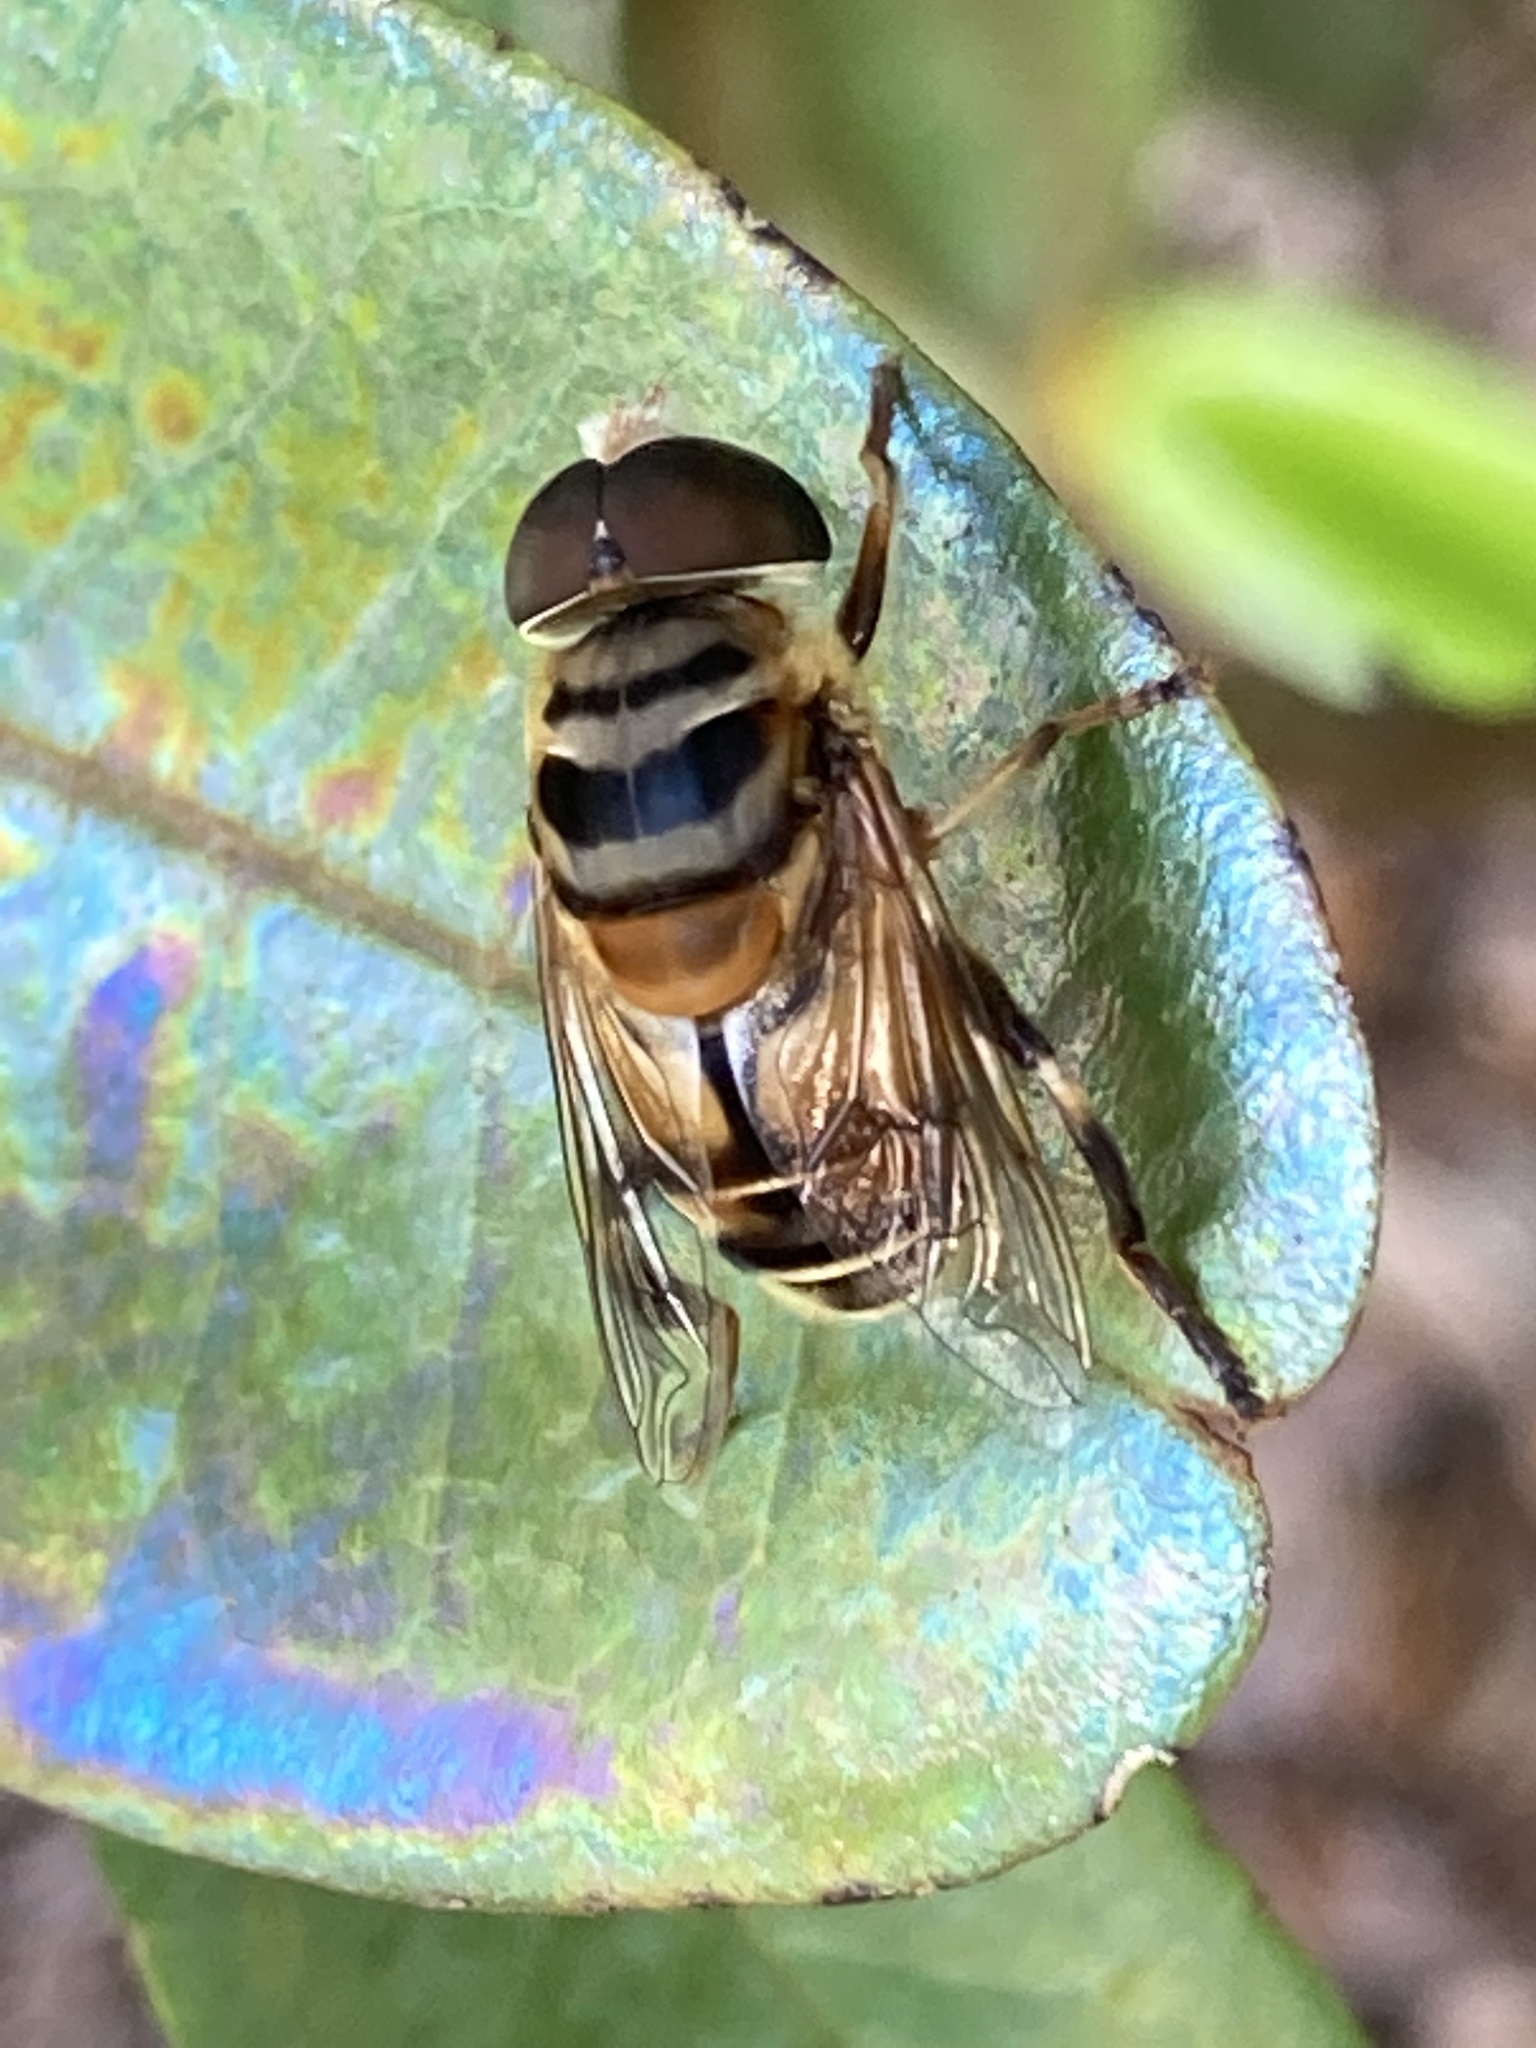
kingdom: Animalia
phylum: Arthropoda
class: Insecta
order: Diptera
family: Syrphidae
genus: Palpada
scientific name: Palpada vinetorum
